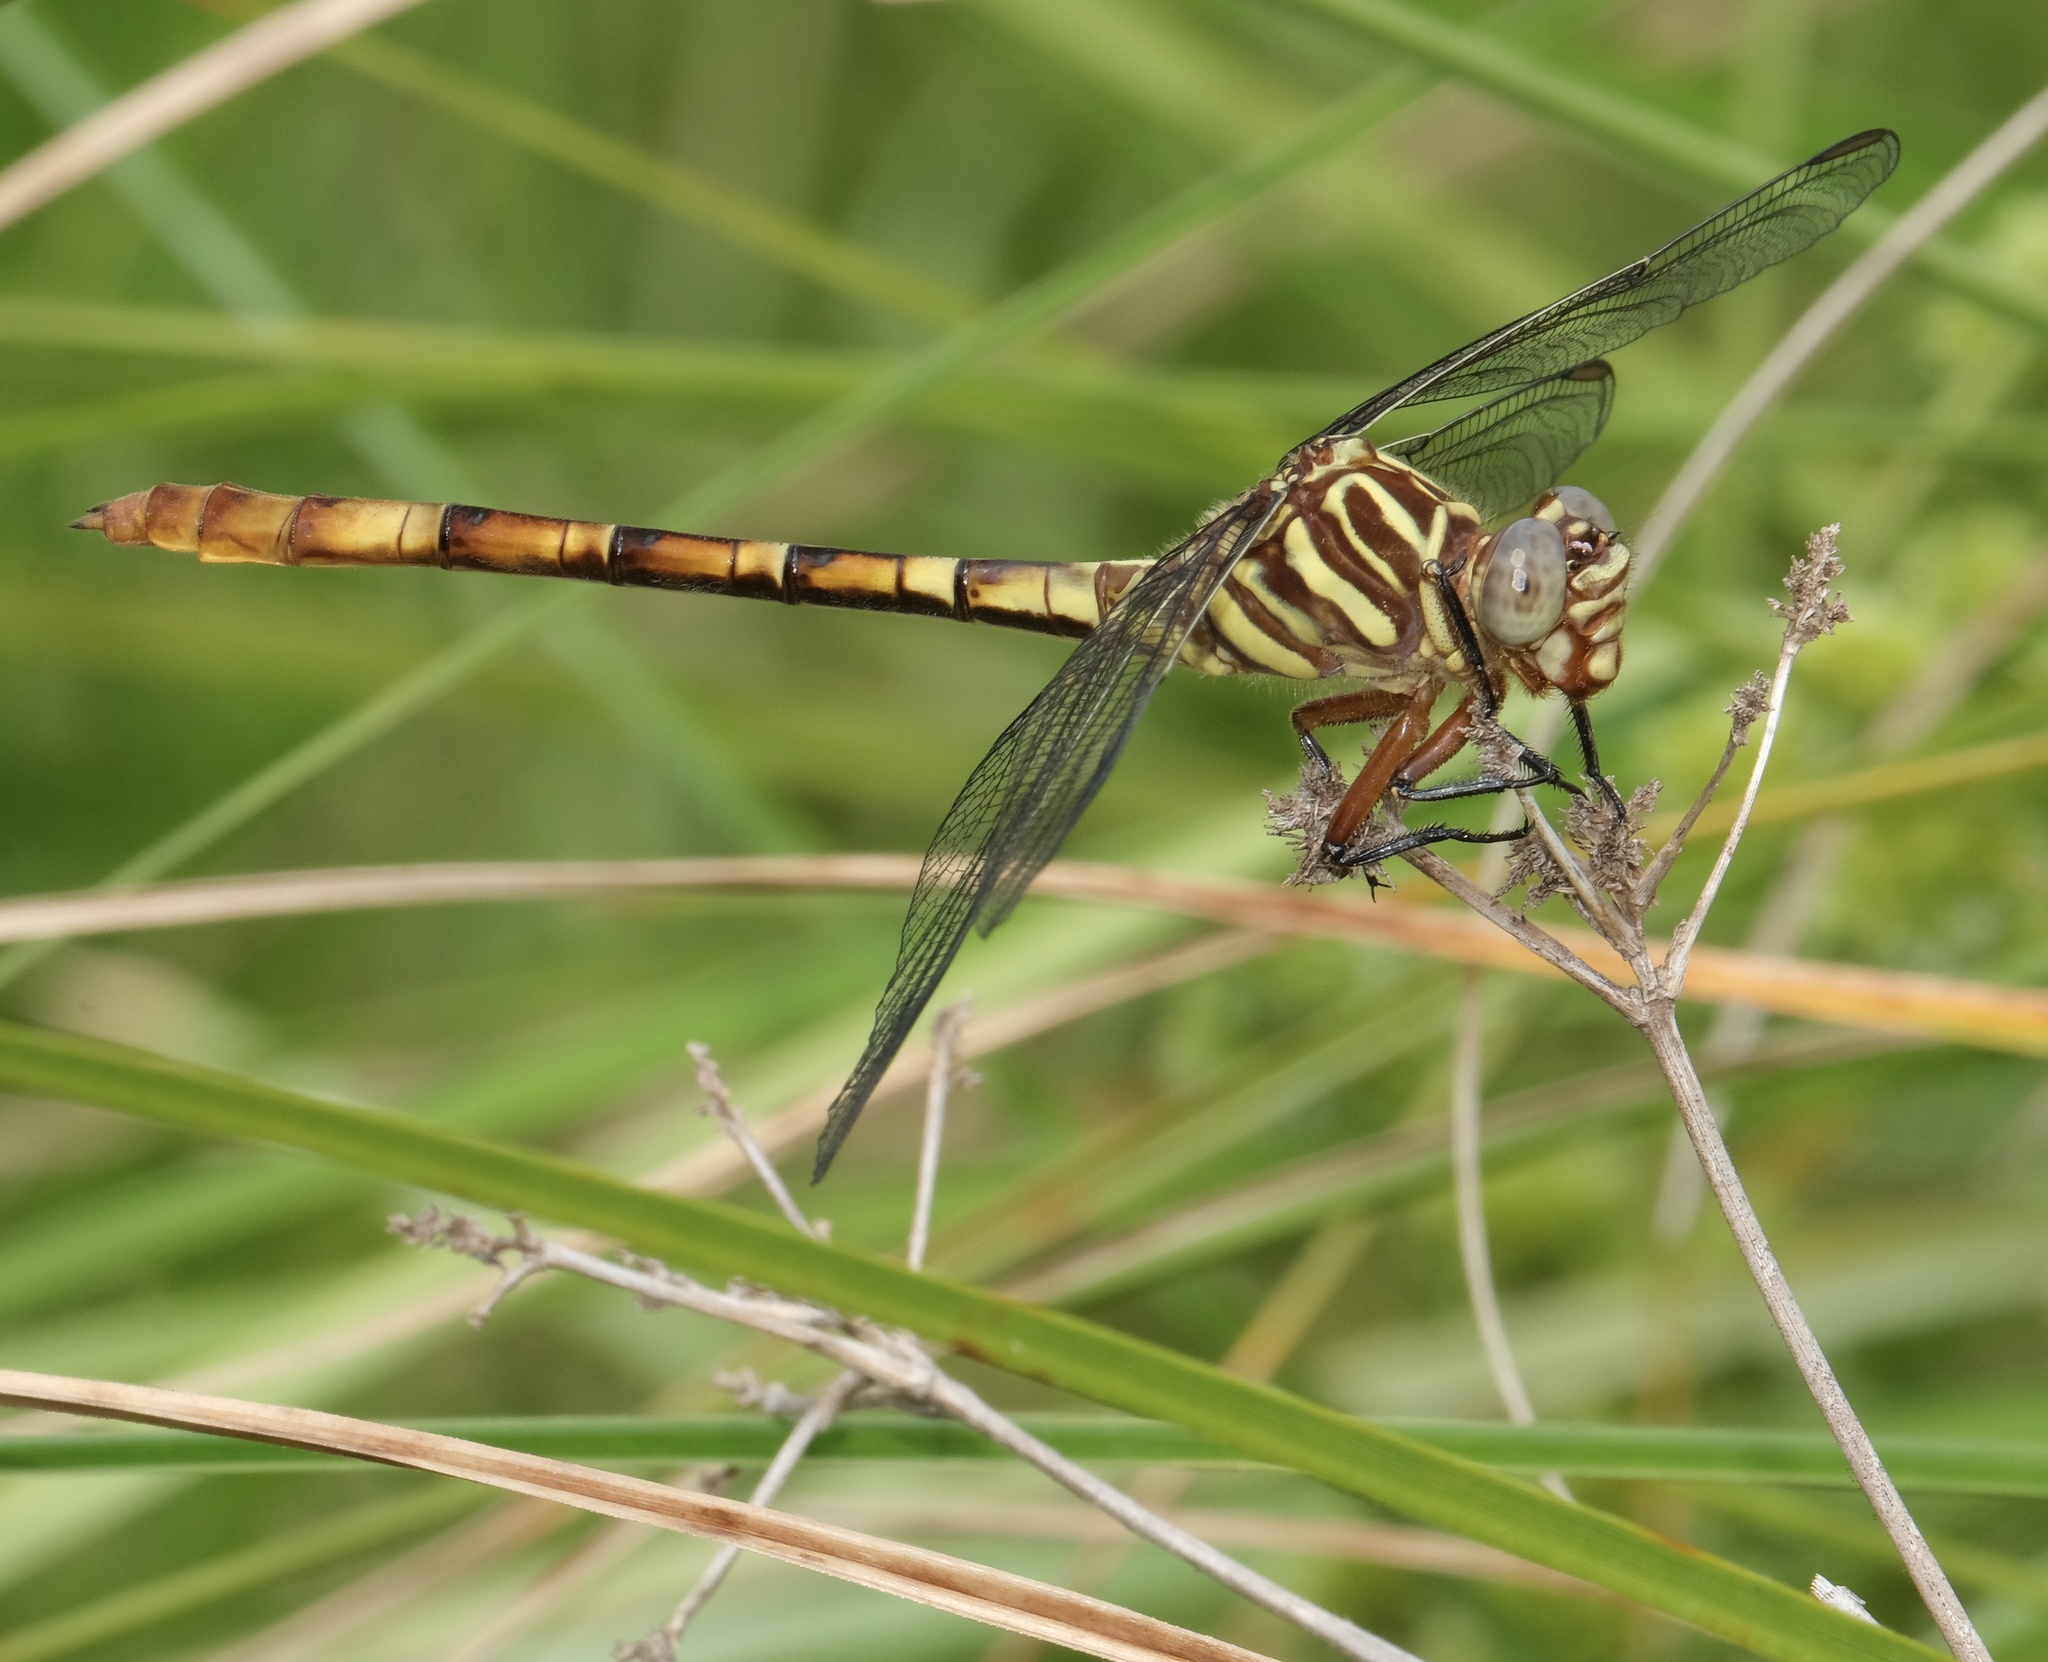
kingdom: Animalia
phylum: Arthropoda
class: Insecta
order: Odonata
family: Gomphidae
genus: Aphylla
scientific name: Aphylla angustifolia
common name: Broad-striped forceptail
